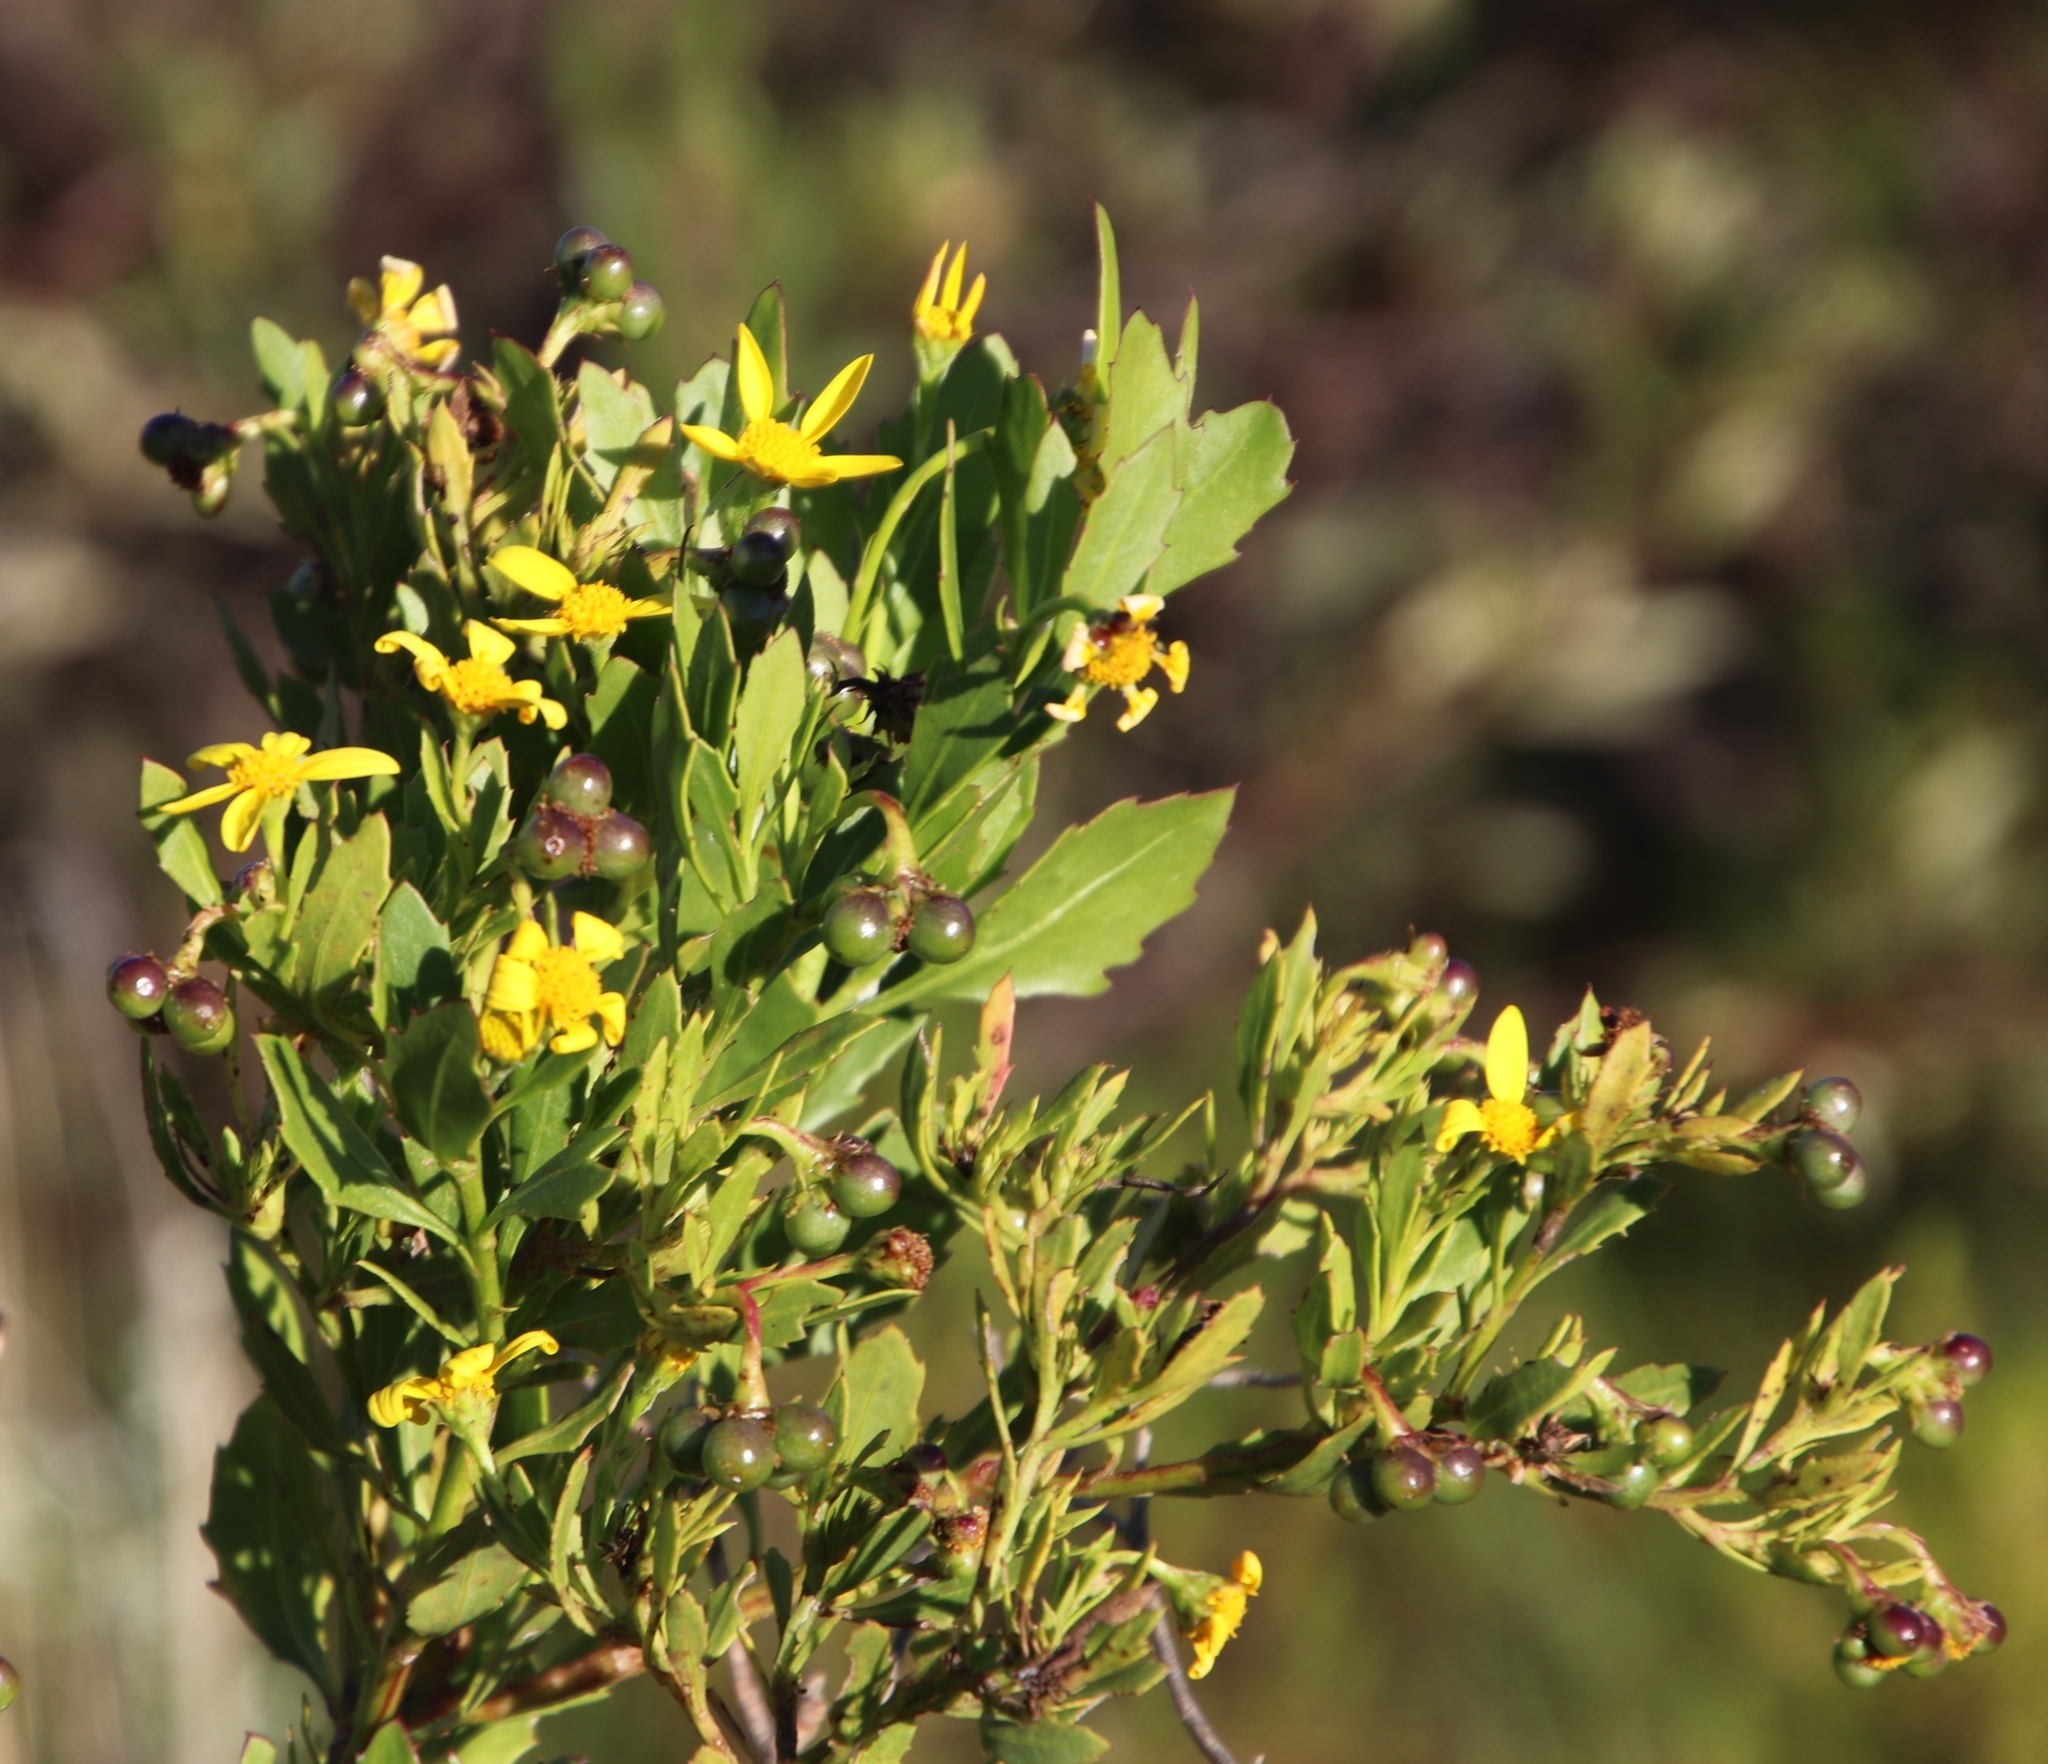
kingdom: Plantae
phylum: Tracheophyta
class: Magnoliopsida
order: Asterales
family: Asteraceae
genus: Osteospermum
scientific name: Osteospermum moniliferum
